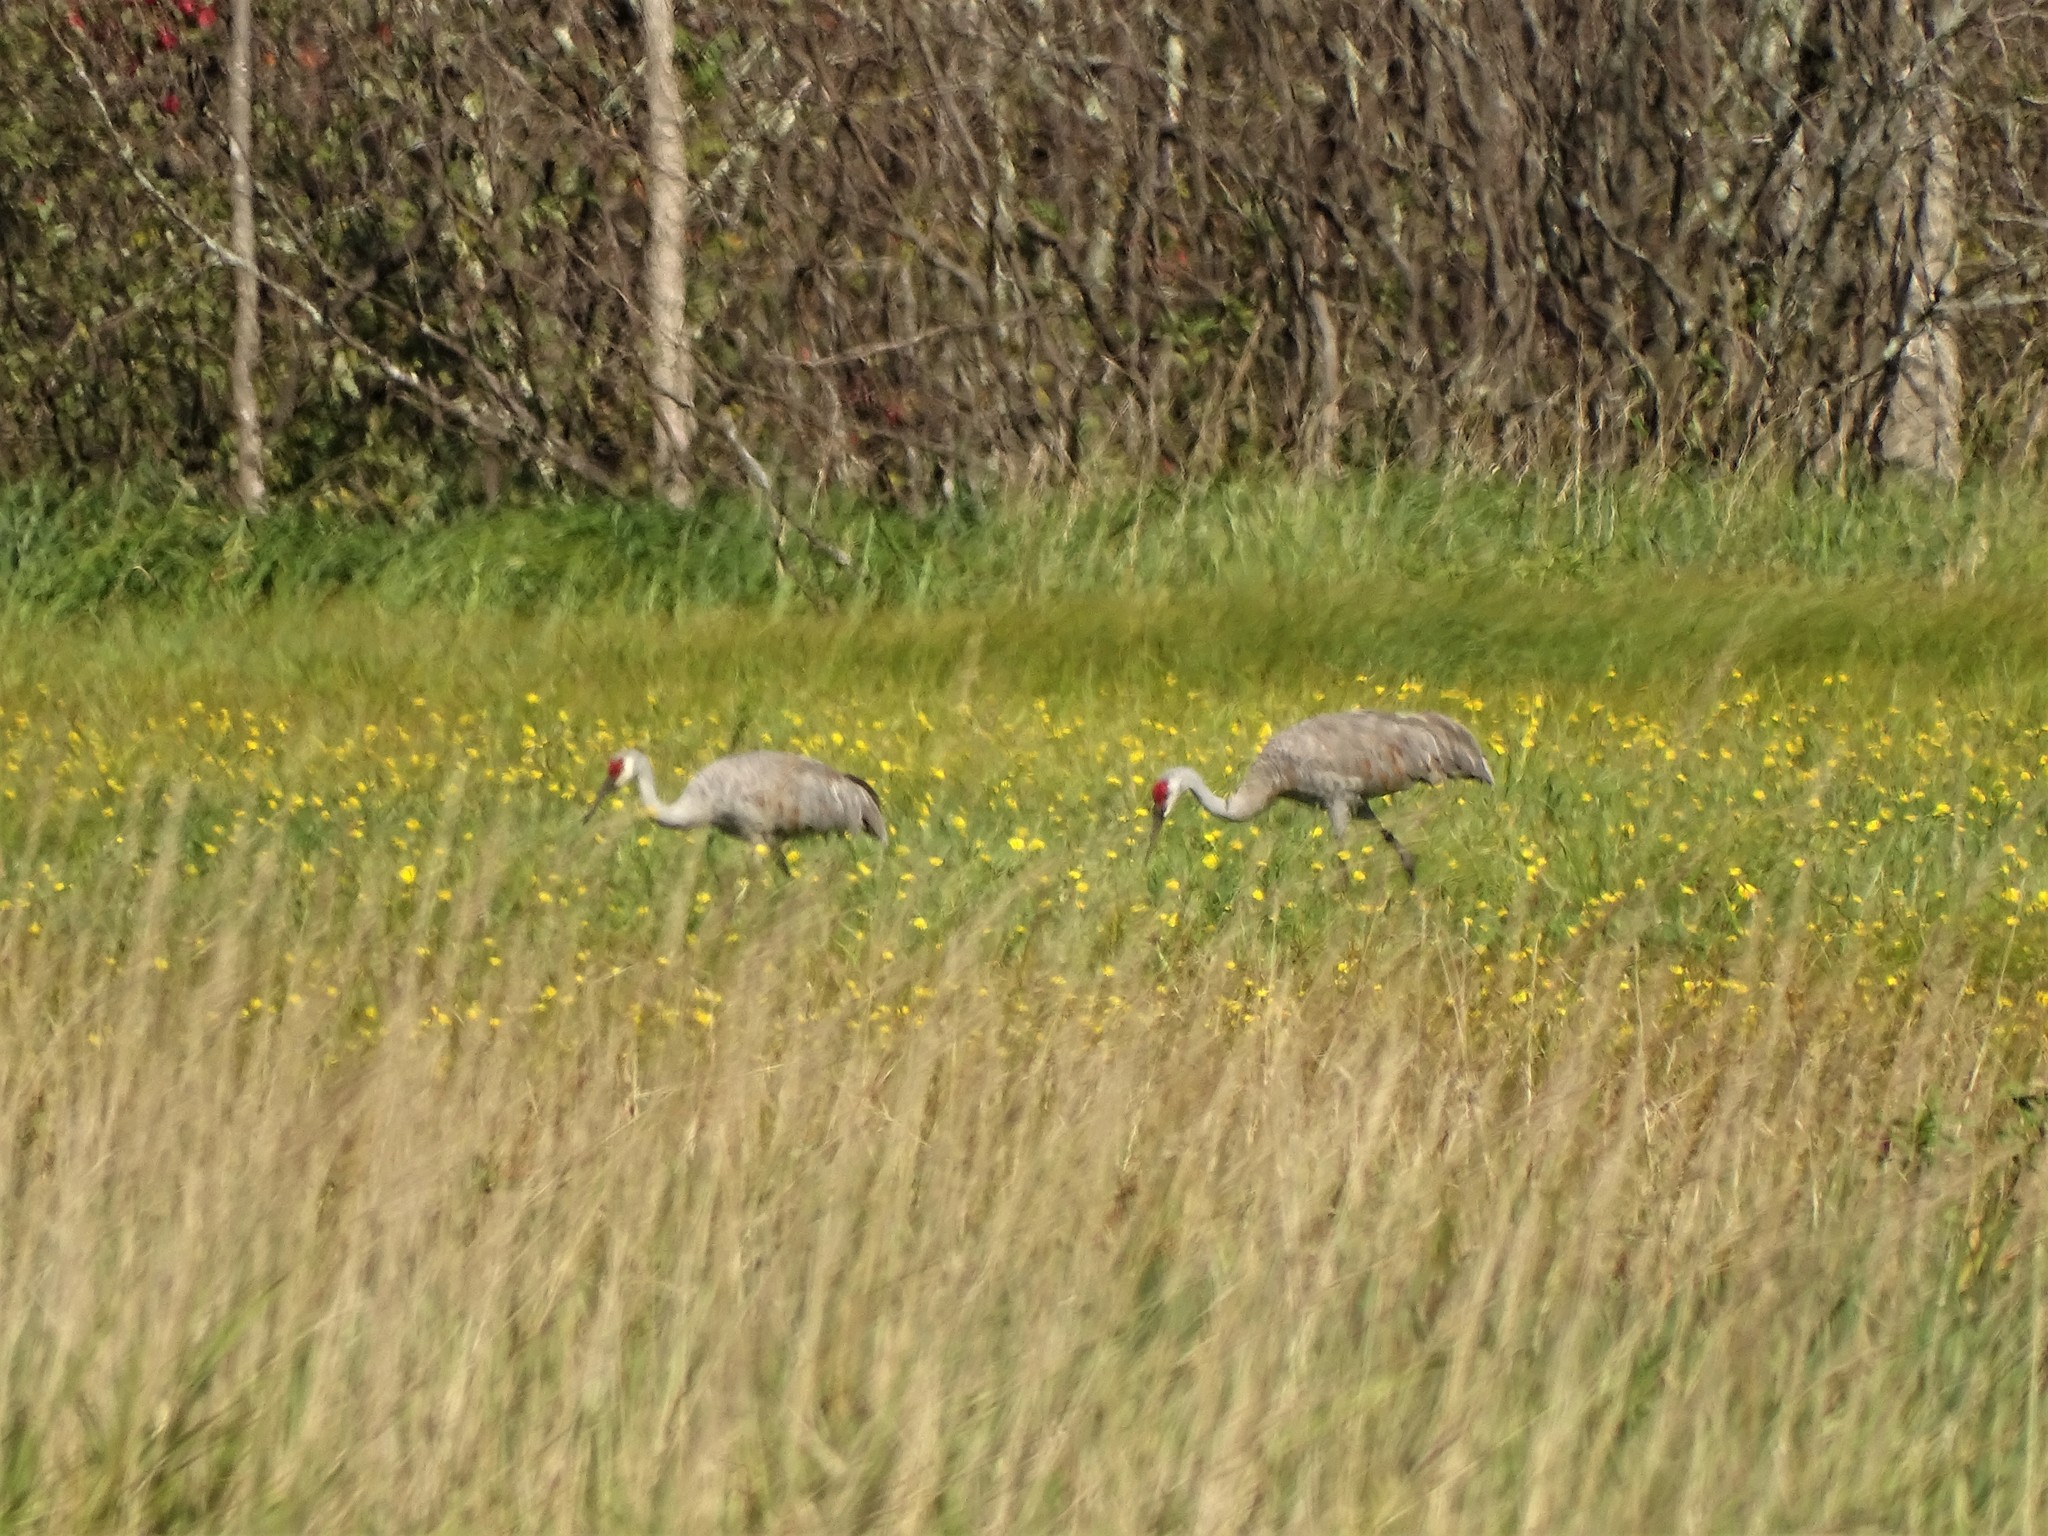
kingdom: Animalia
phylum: Chordata
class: Aves
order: Gruiformes
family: Gruidae
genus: Grus
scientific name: Grus canadensis
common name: Sandhill crane
